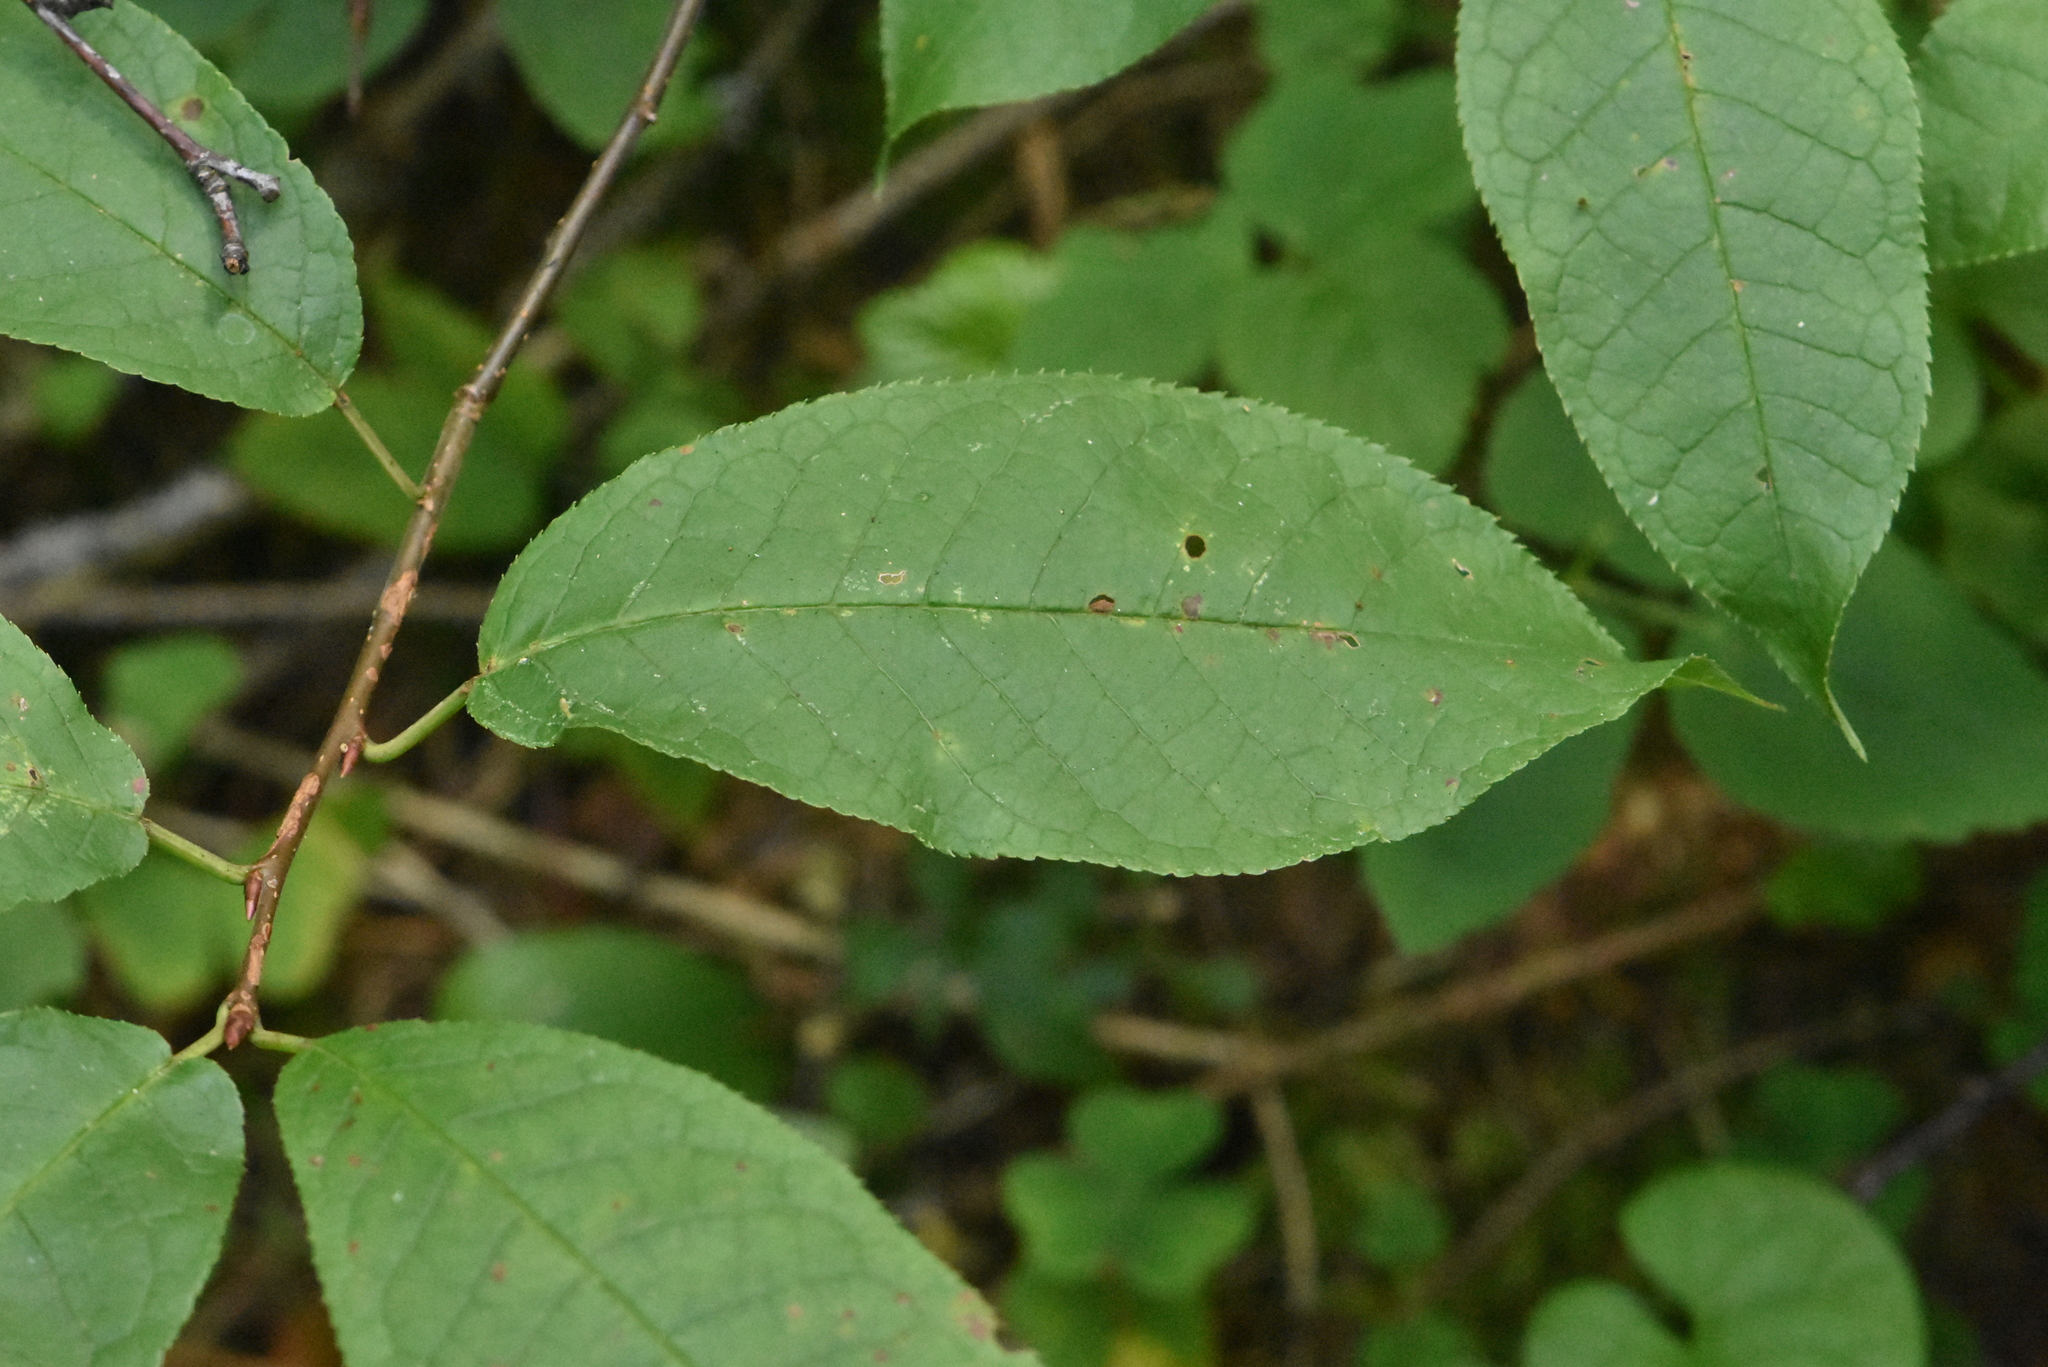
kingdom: Plantae
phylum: Tracheophyta
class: Magnoliopsida
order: Rosales
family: Rosaceae
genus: Prunus
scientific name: Prunus padus
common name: Bird cherry
